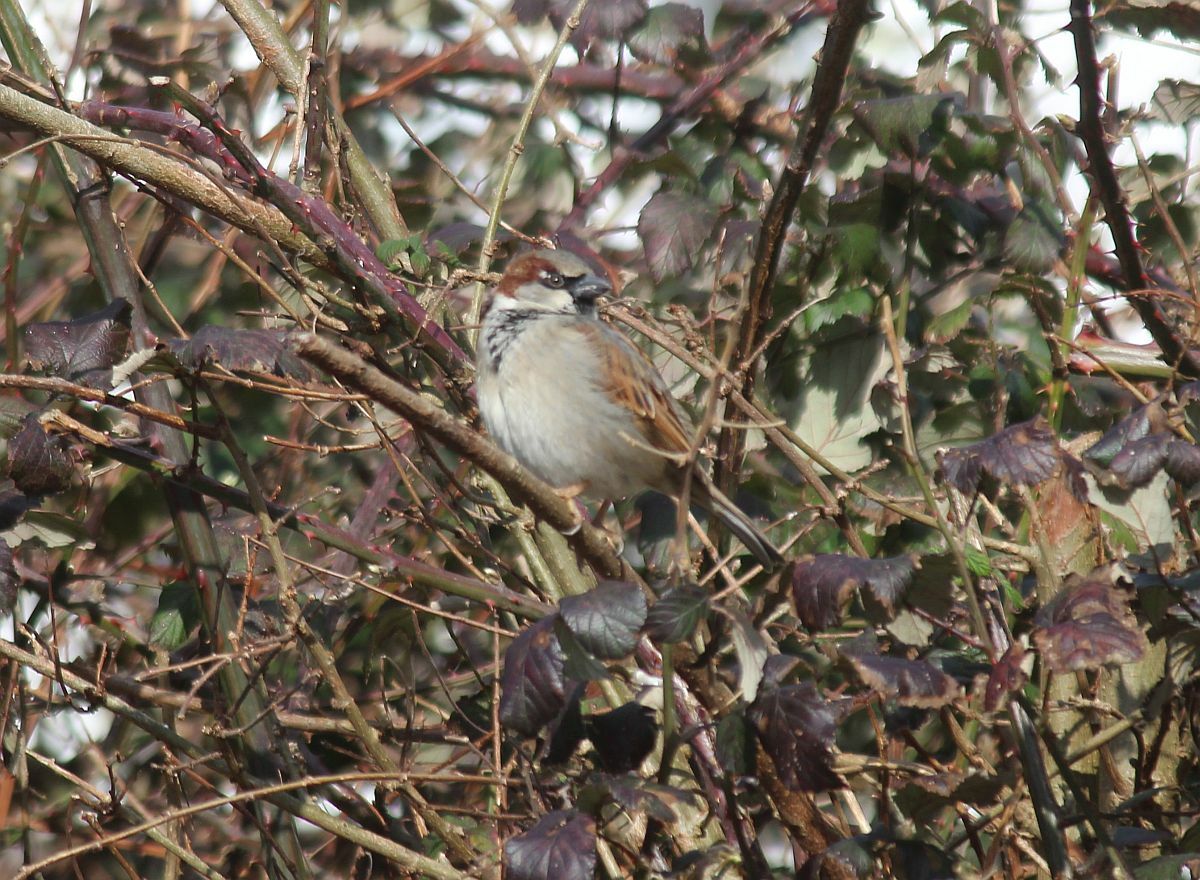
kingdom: Animalia
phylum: Chordata
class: Aves
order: Passeriformes
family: Passeridae
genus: Passer
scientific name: Passer domesticus
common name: House sparrow
